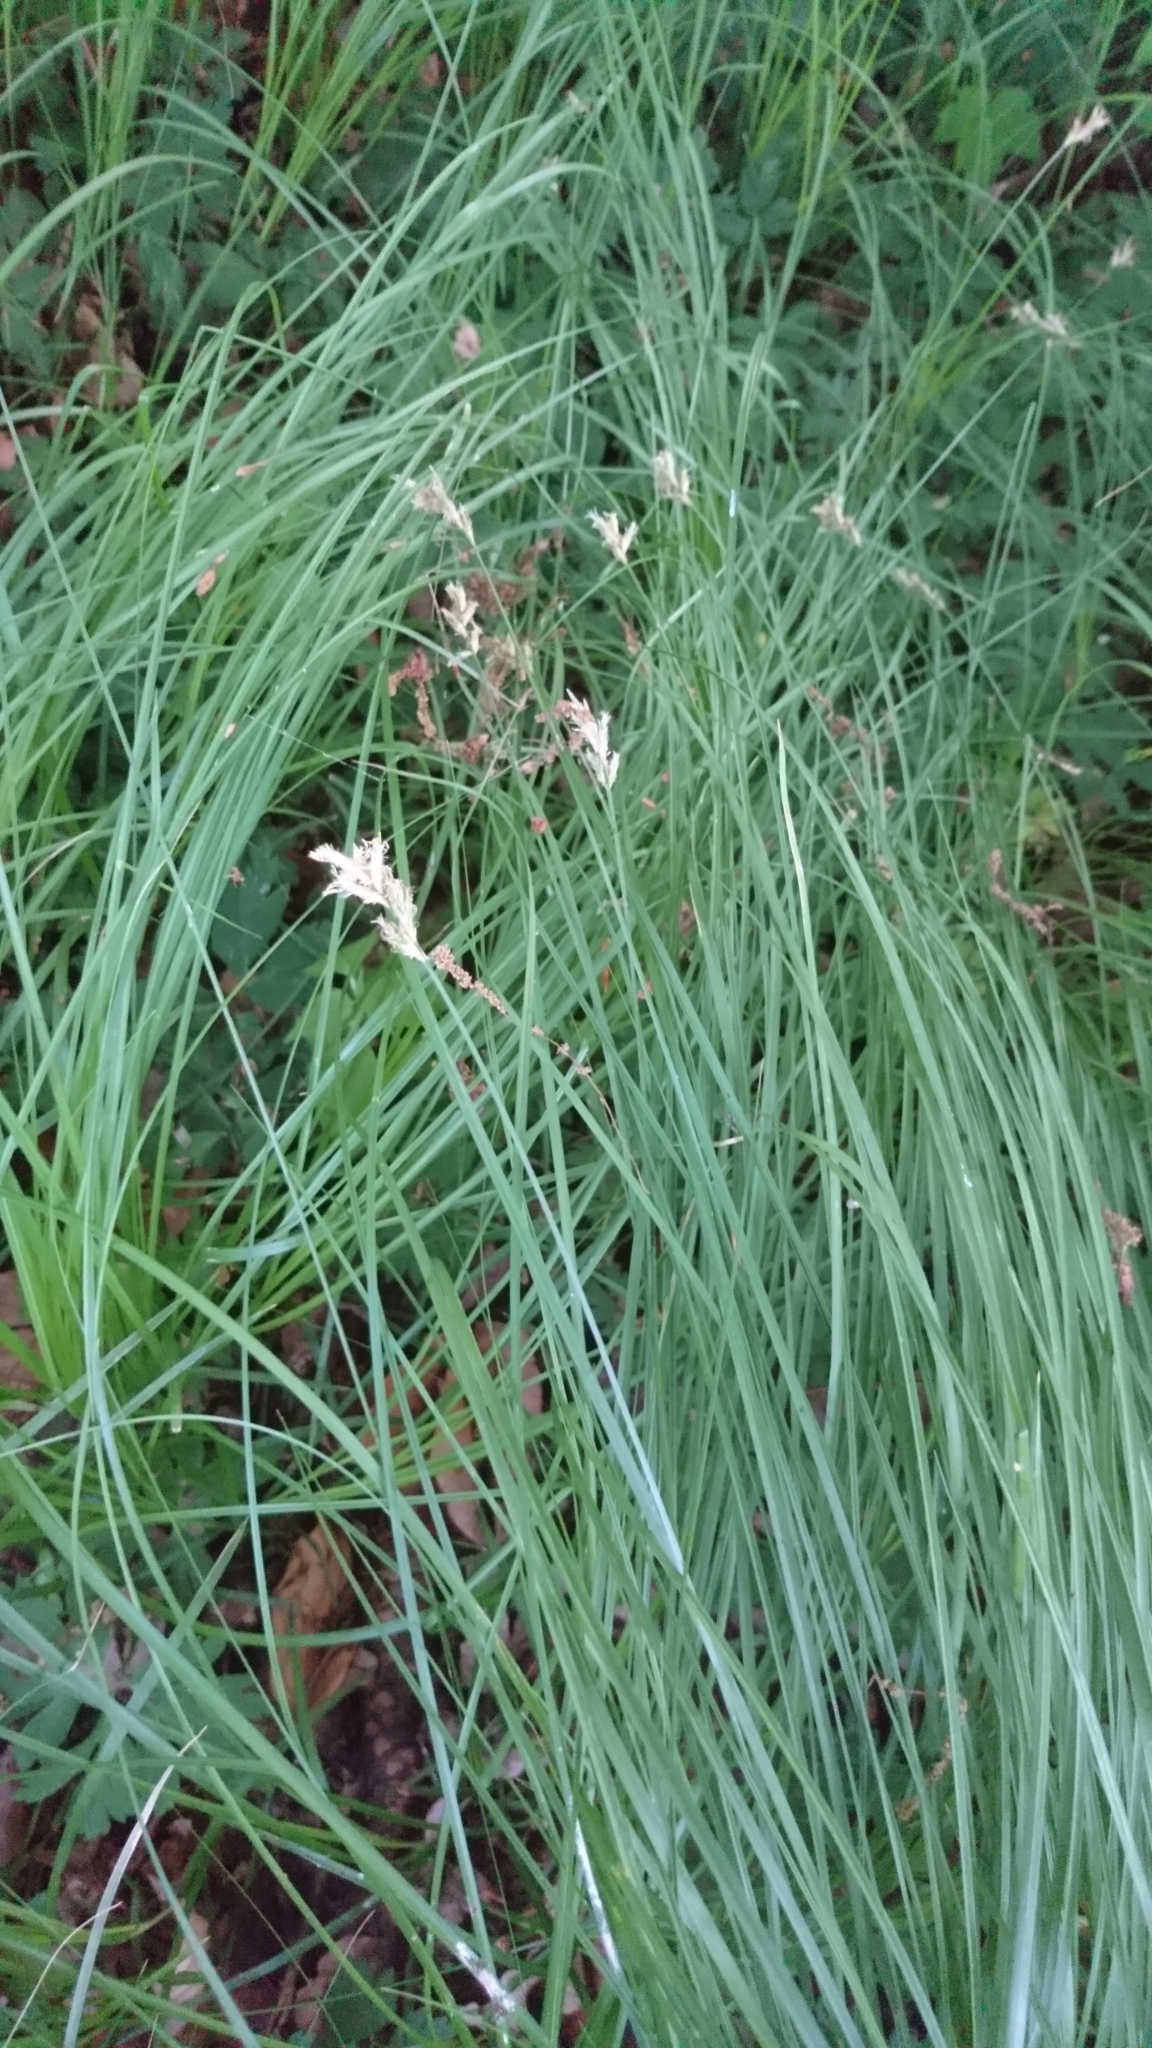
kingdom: Plantae
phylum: Tracheophyta
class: Liliopsida
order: Poales
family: Cyperaceae
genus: Carex
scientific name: Carex brizoides
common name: Quaking-grass sedge
